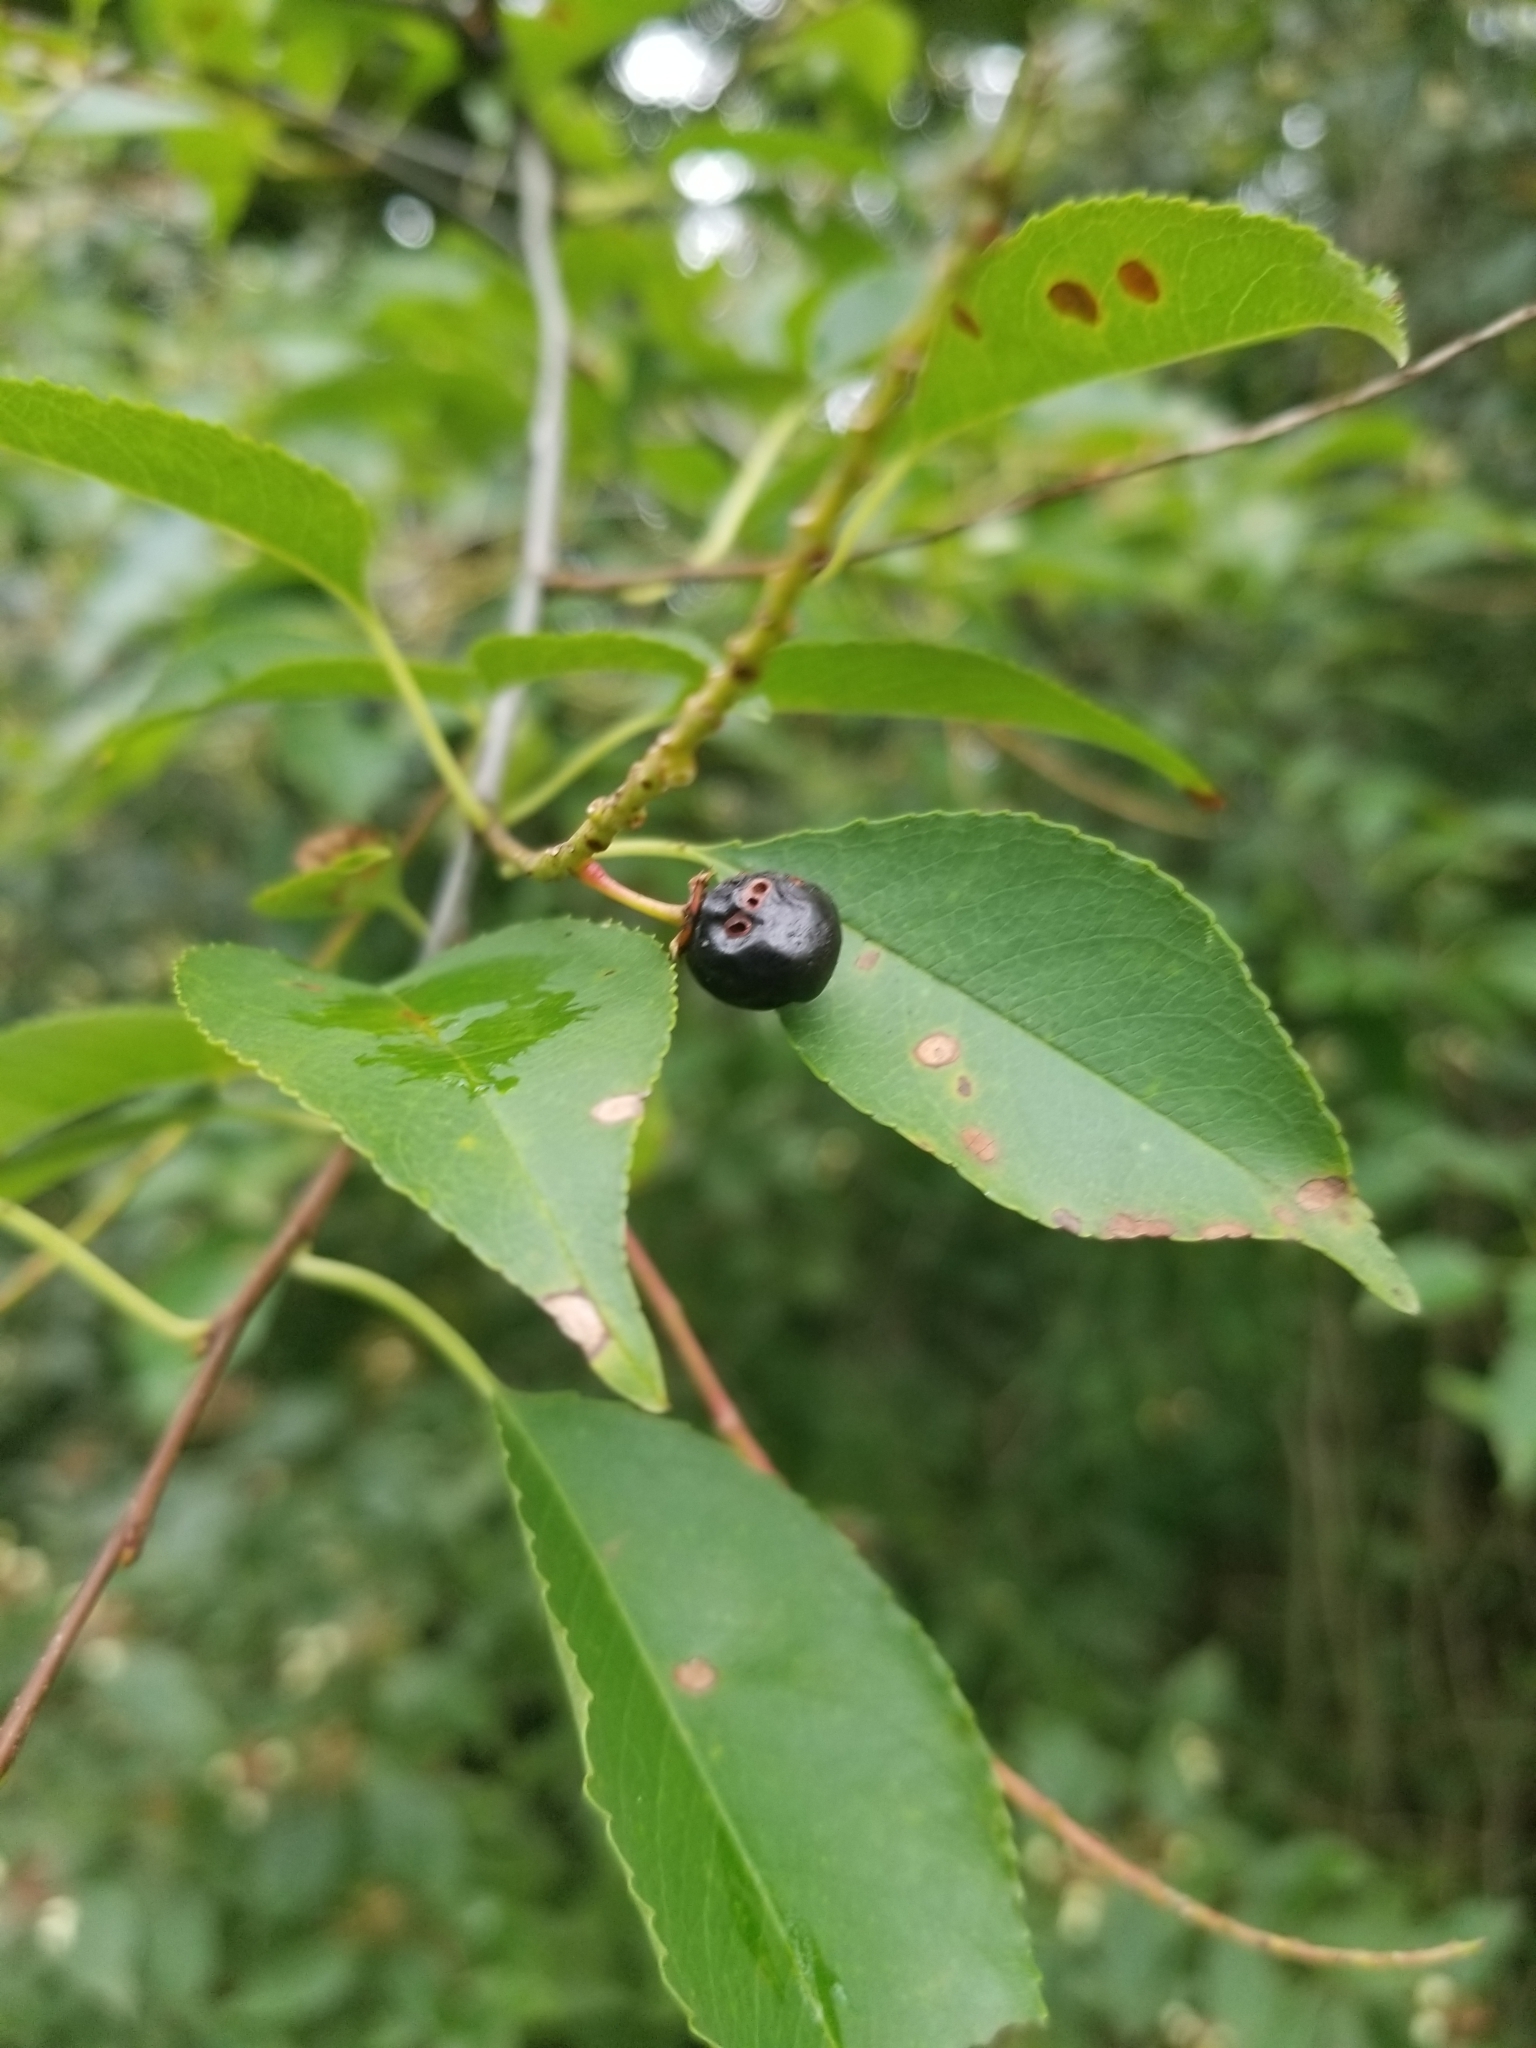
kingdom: Plantae
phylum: Tracheophyta
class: Magnoliopsida
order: Rosales
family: Rosaceae
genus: Prunus
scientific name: Prunus serotina
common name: Black cherry
